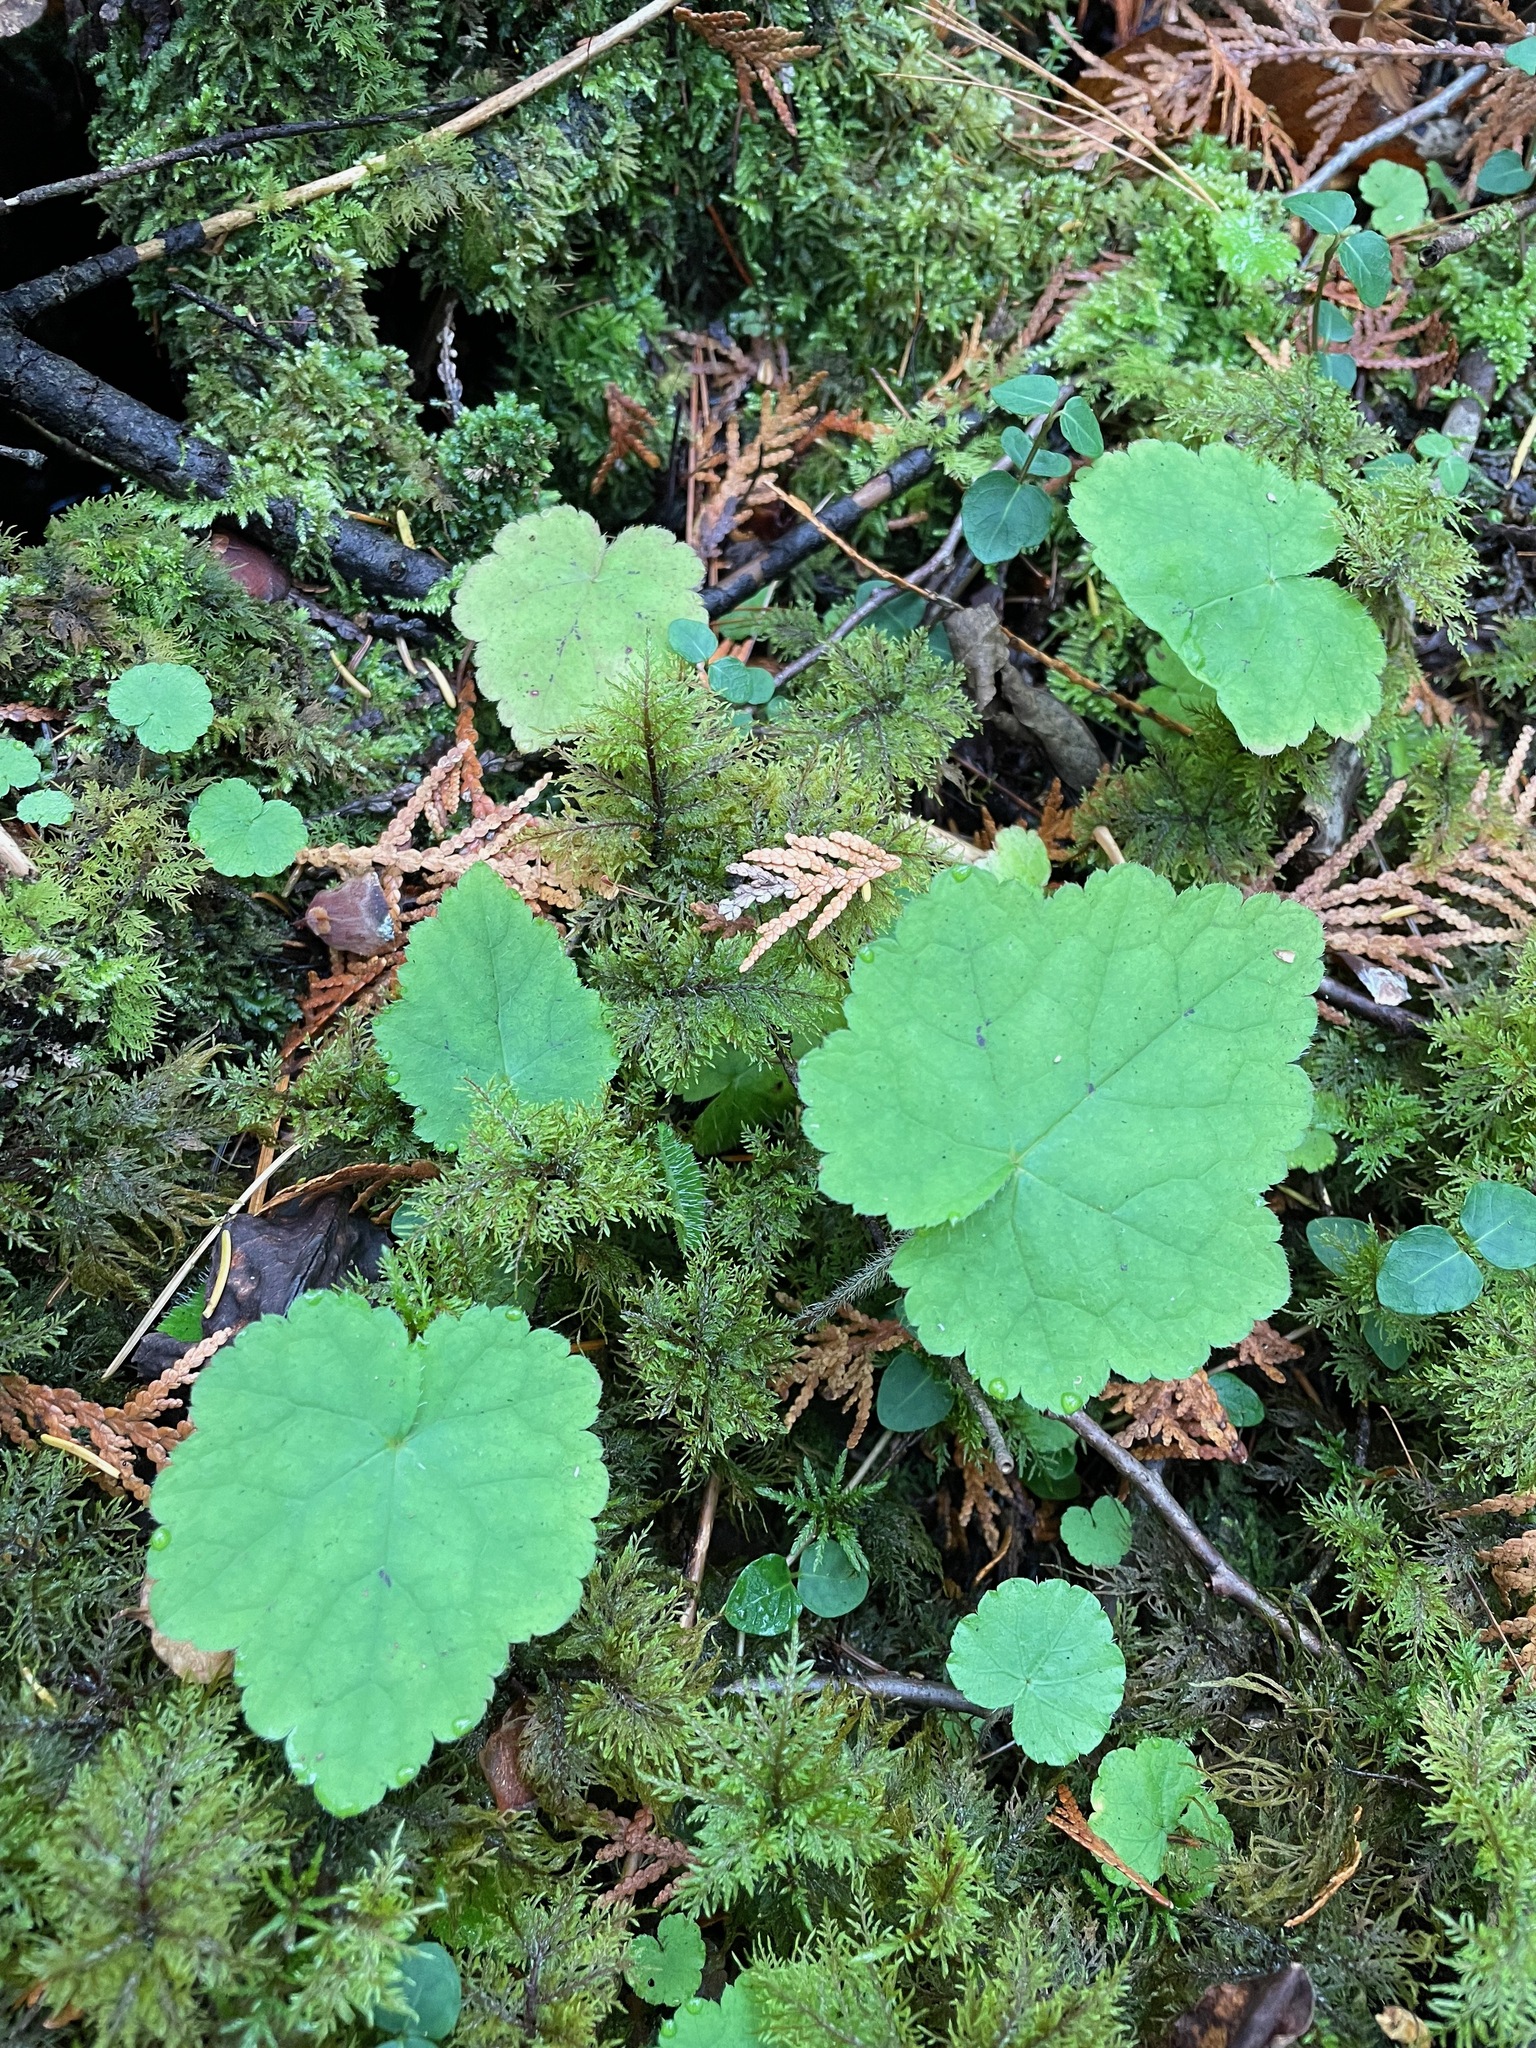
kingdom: Plantae
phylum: Tracheophyta
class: Magnoliopsida
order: Saxifragales
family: Saxifragaceae
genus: Tiarella
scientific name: Tiarella stolonifera
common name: Stoloniferous foamflower
